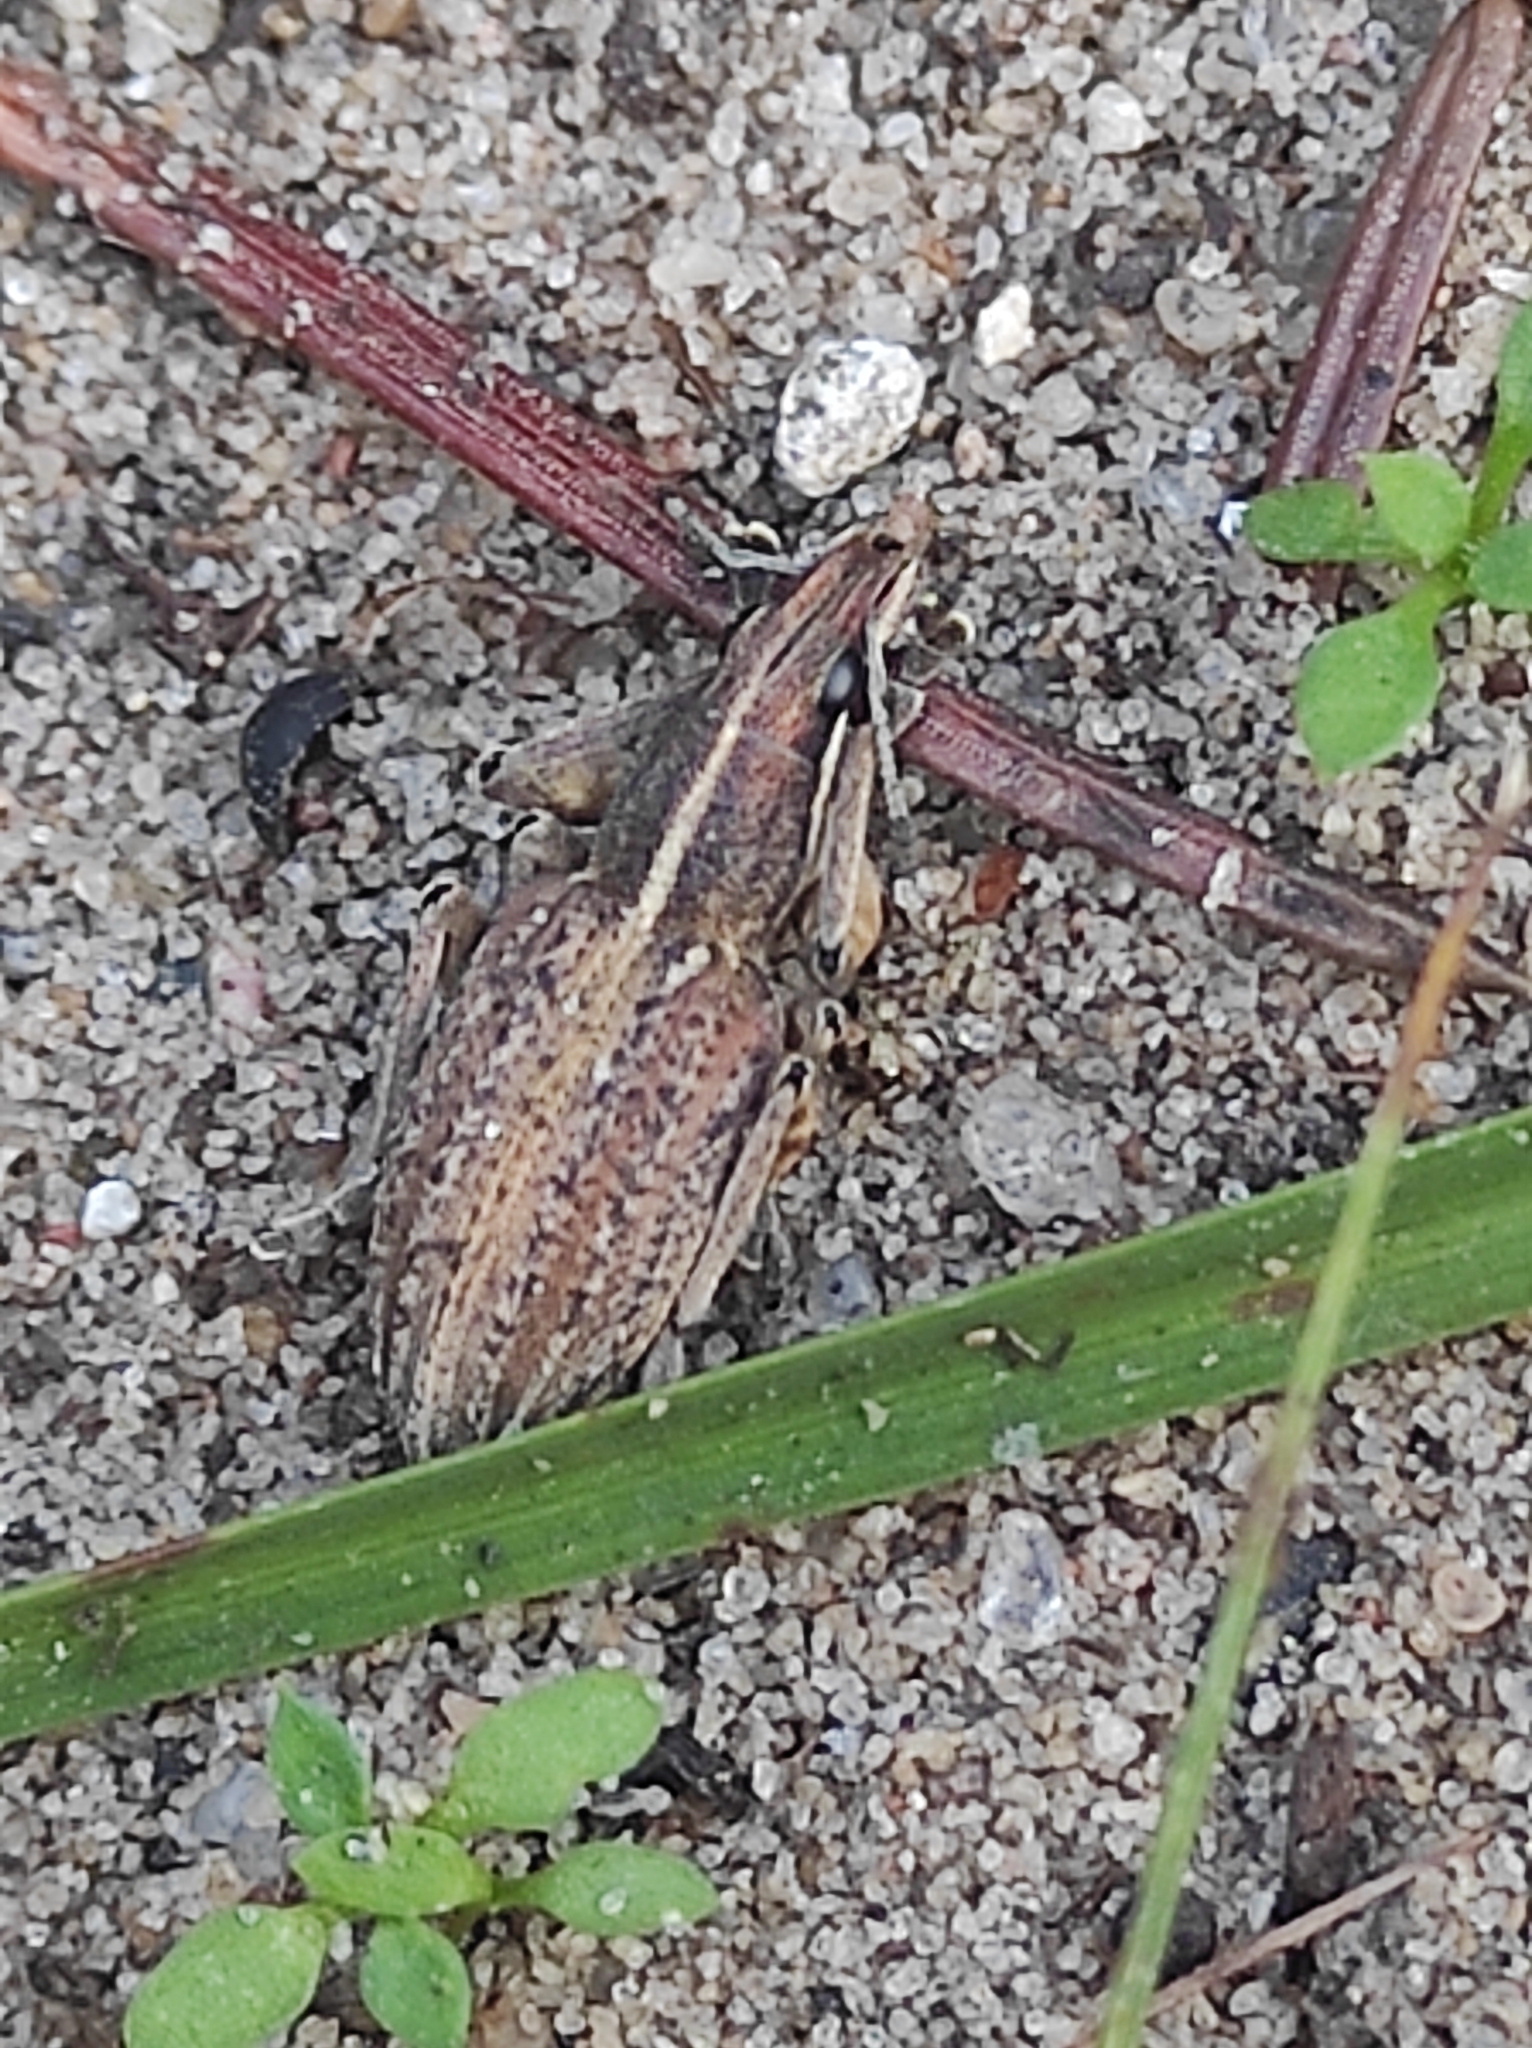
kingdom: Animalia
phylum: Arthropoda
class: Insecta
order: Coleoptera
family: Curculionidae
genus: Charagmus
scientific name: Charagmus gressorius
